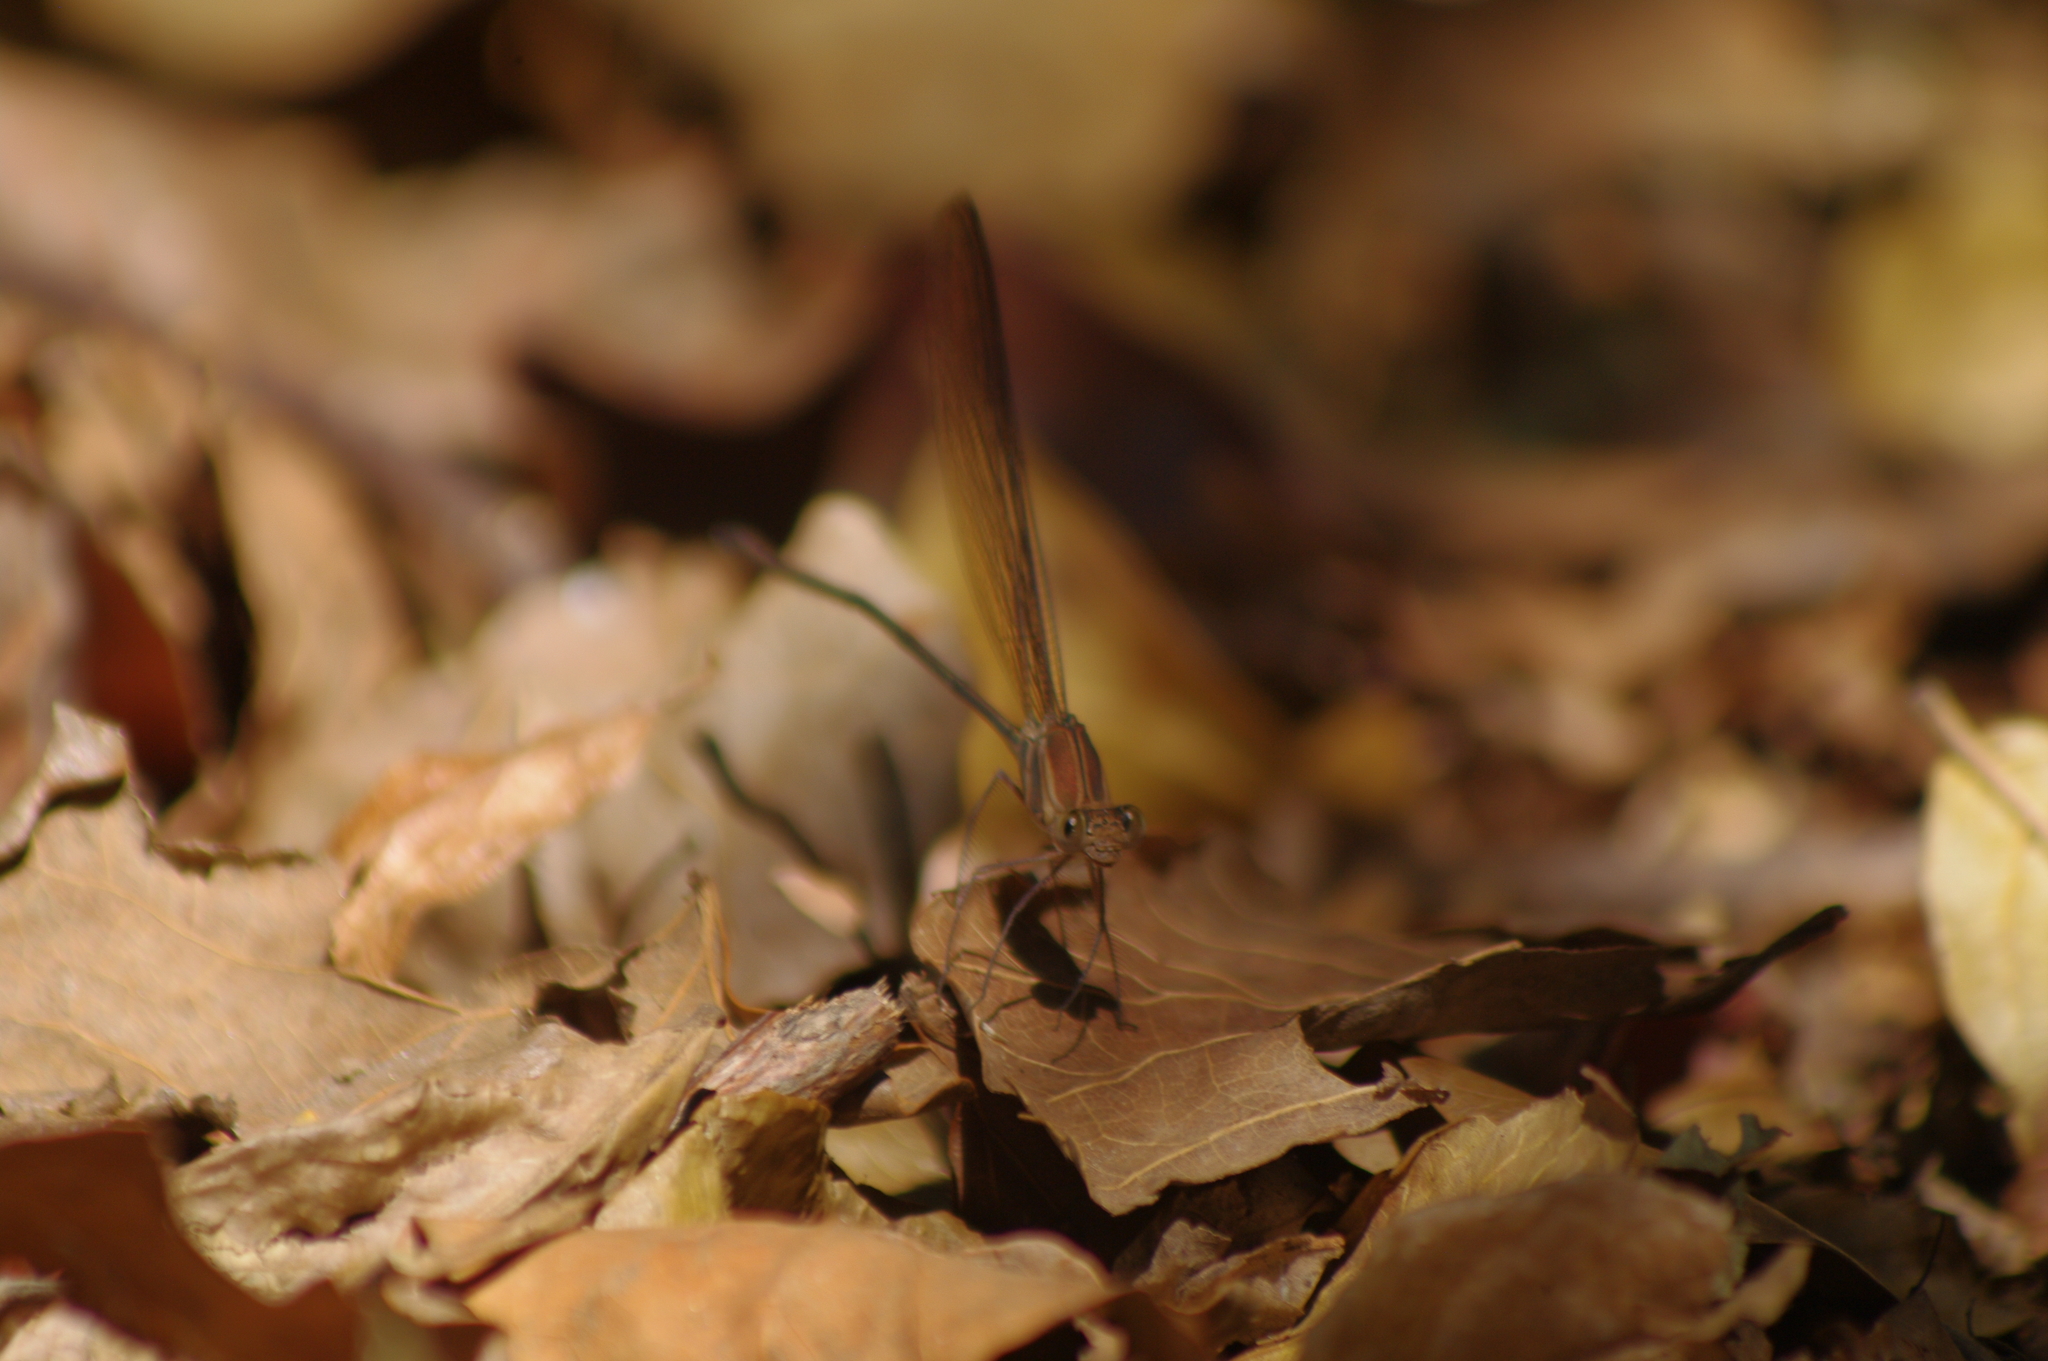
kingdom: Animalia
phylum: Arthropoda
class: Insecta
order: Odonata
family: Calopterygidae
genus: Phaon
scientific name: Phaon iridipennis
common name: Glistening demoiselle
